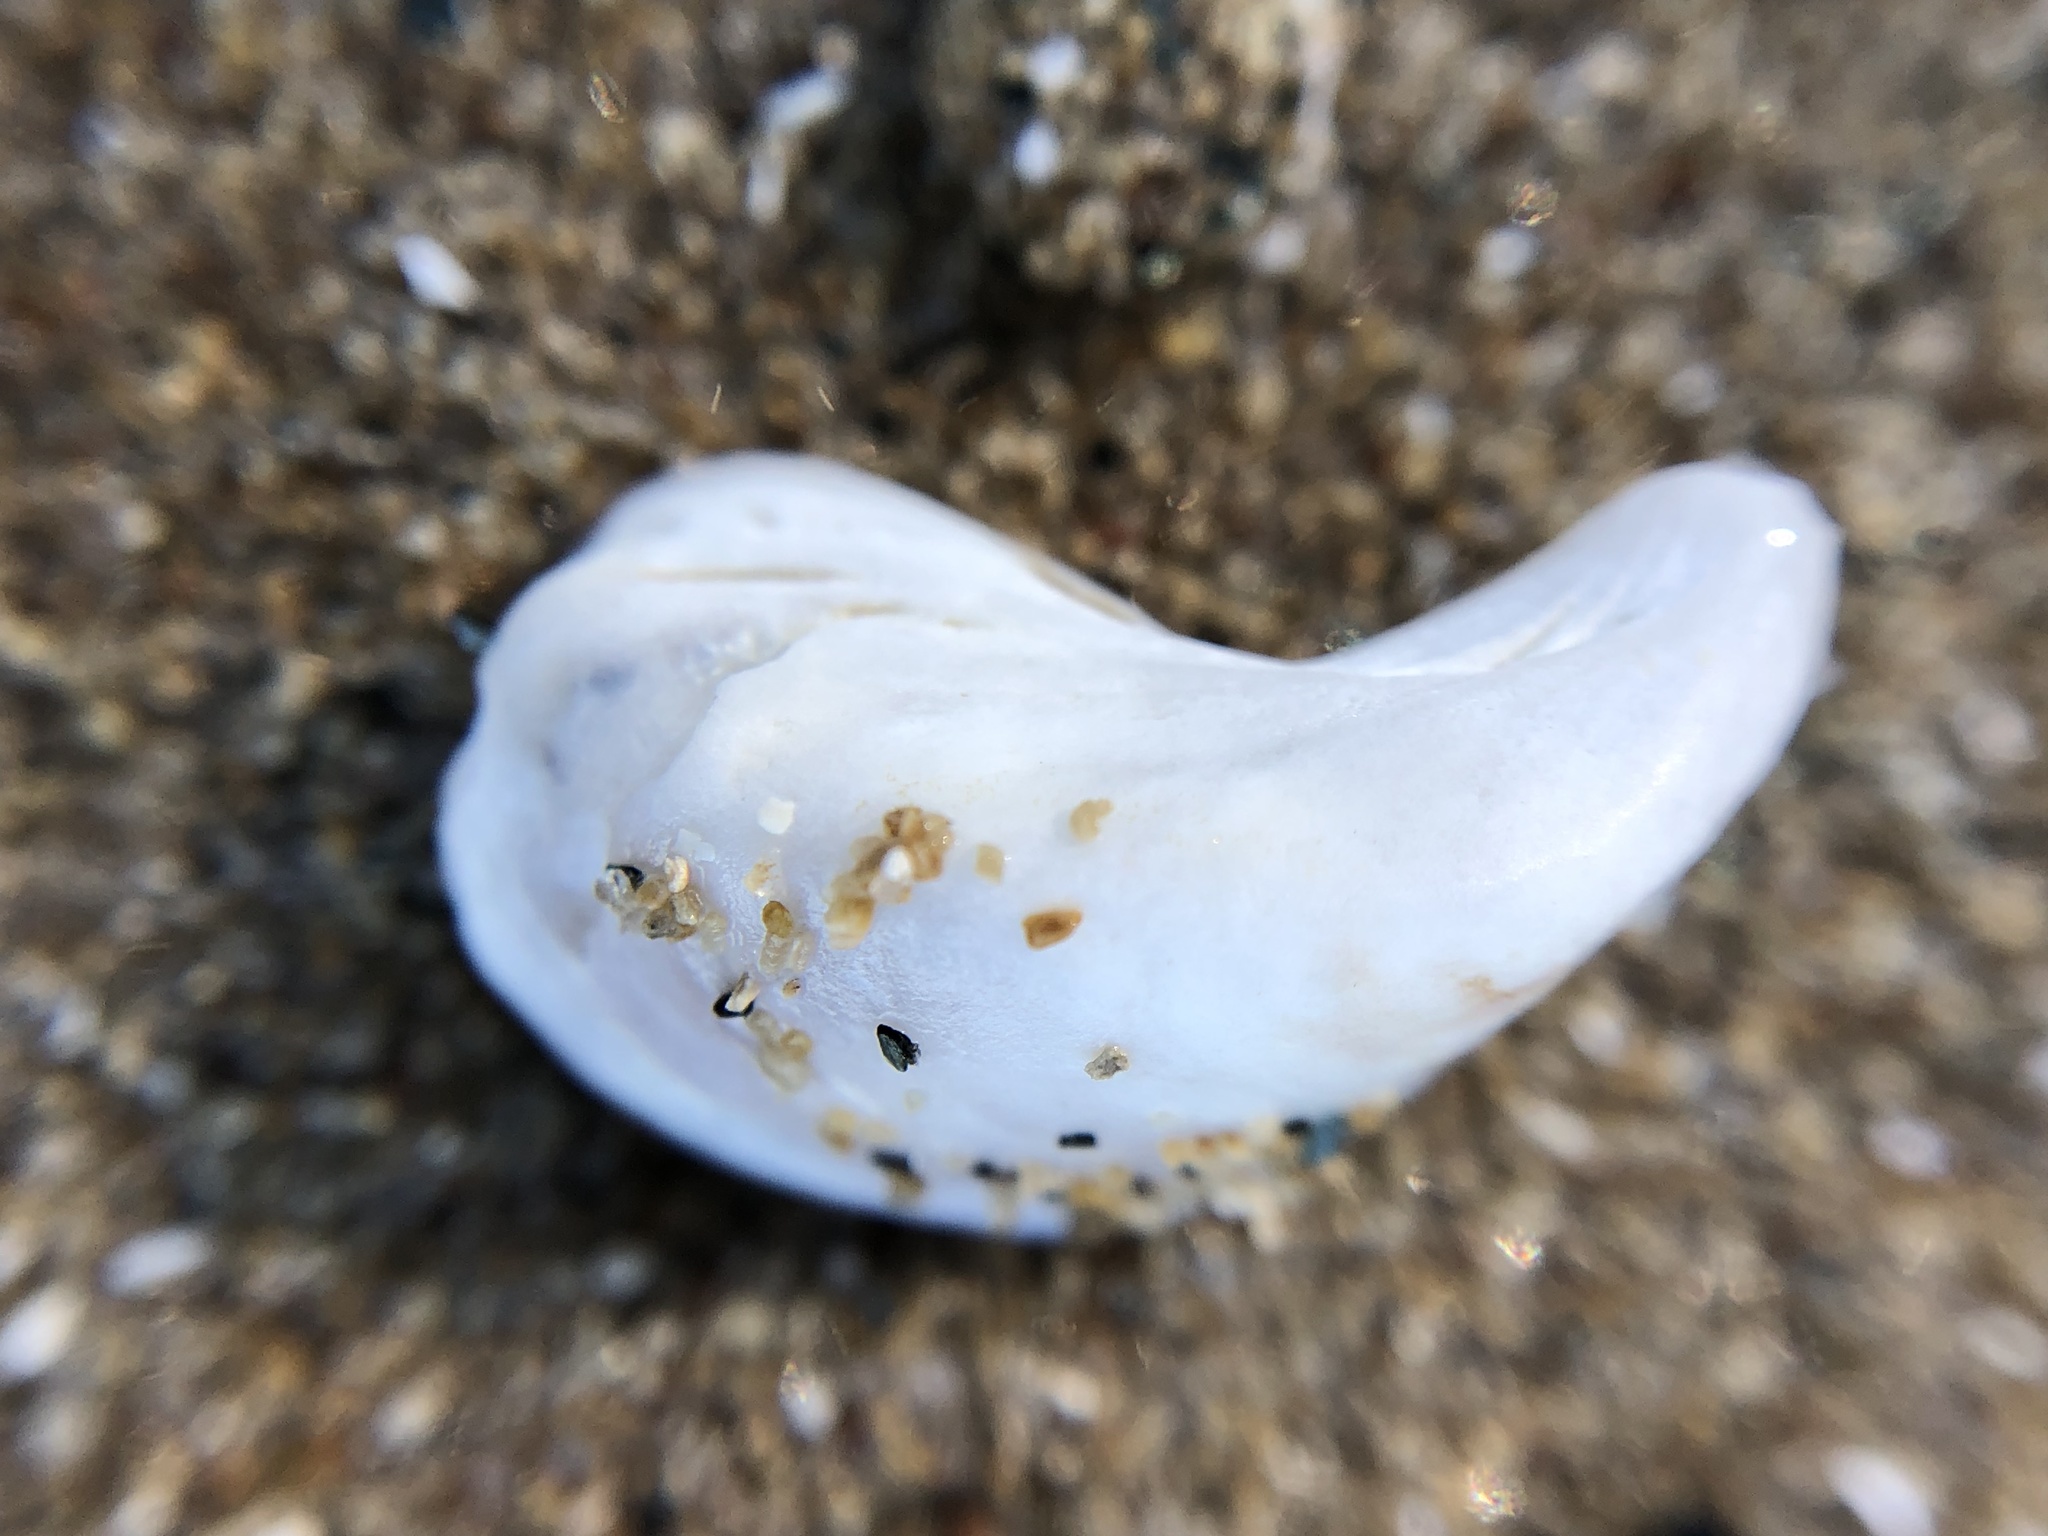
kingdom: Animalia
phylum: Mollusca
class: Bivalvia
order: Myida
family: Dreissenidae
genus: Dreissena
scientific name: Dreissena bugensis
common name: Quagga mussel
